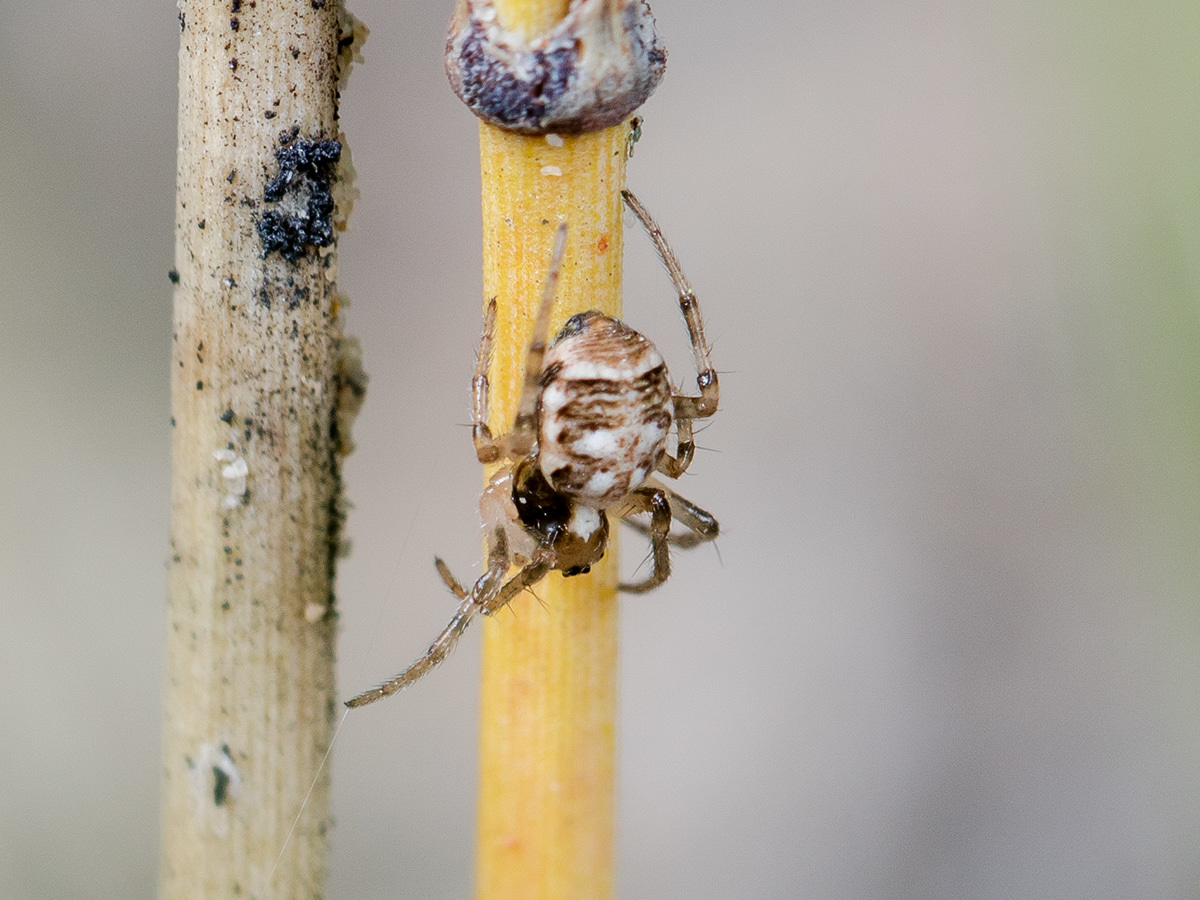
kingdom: Animalia
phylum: Arthropoda
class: Arachnida
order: Araneae
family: Araneidae
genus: Hypsosinga
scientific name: Hypsosinga kazachstanica
